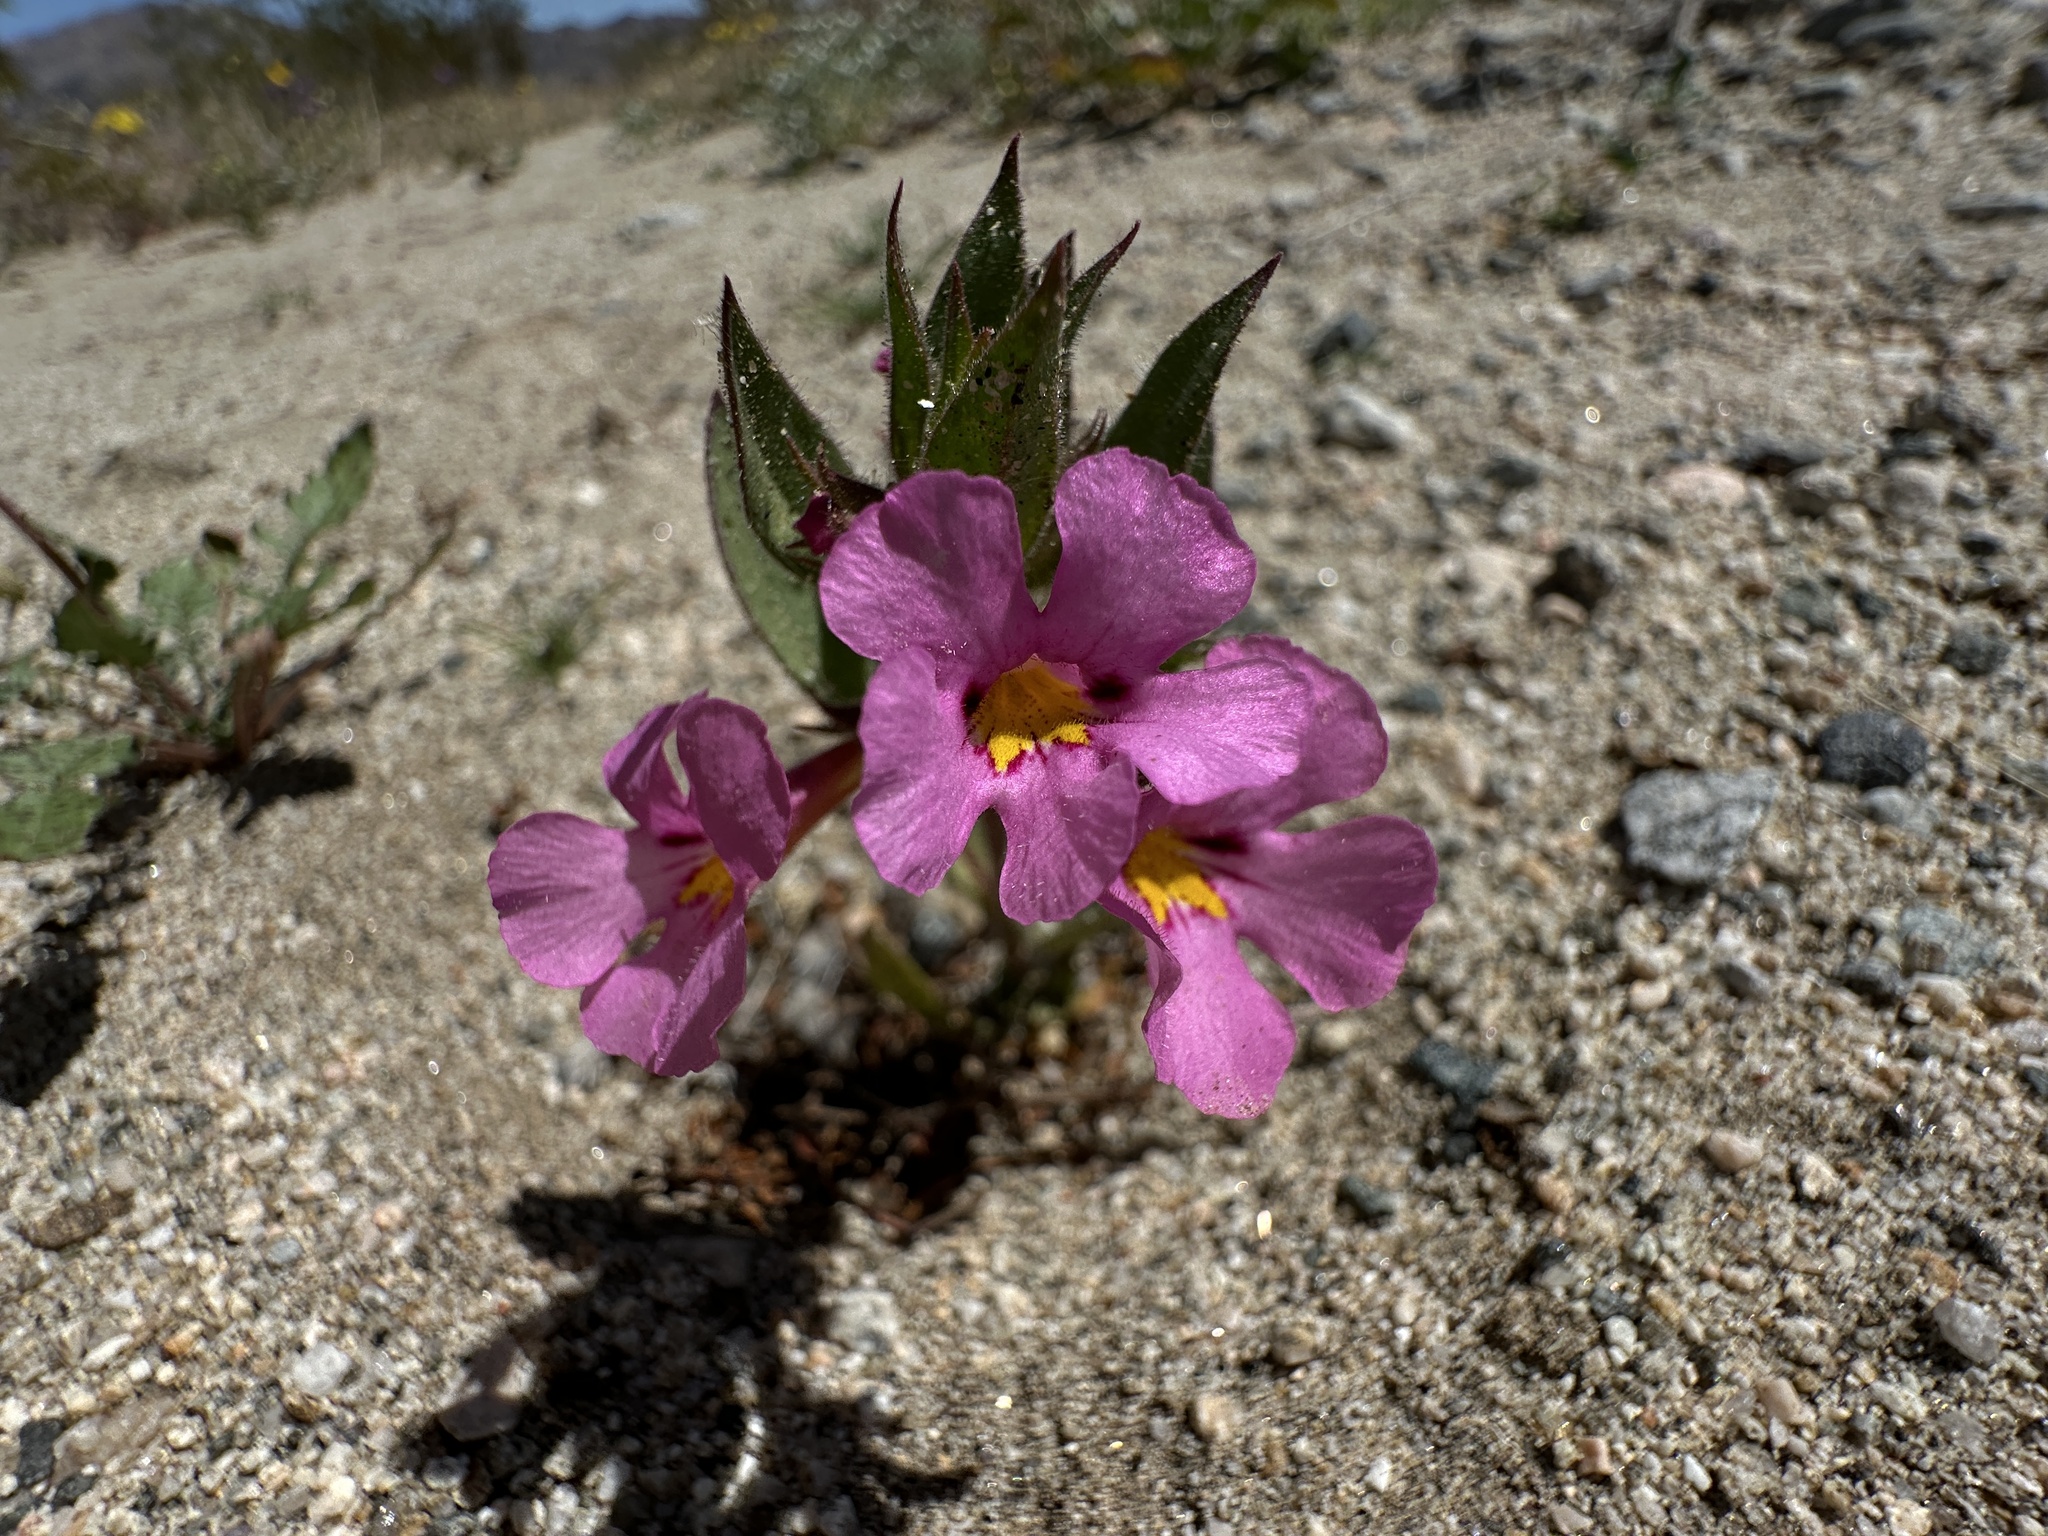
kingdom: Plantae
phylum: Tracheophyta
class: Magnoliopsida
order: Lamiales
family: Phrymaceae
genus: Diplacus
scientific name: Diplacus bigelovii
